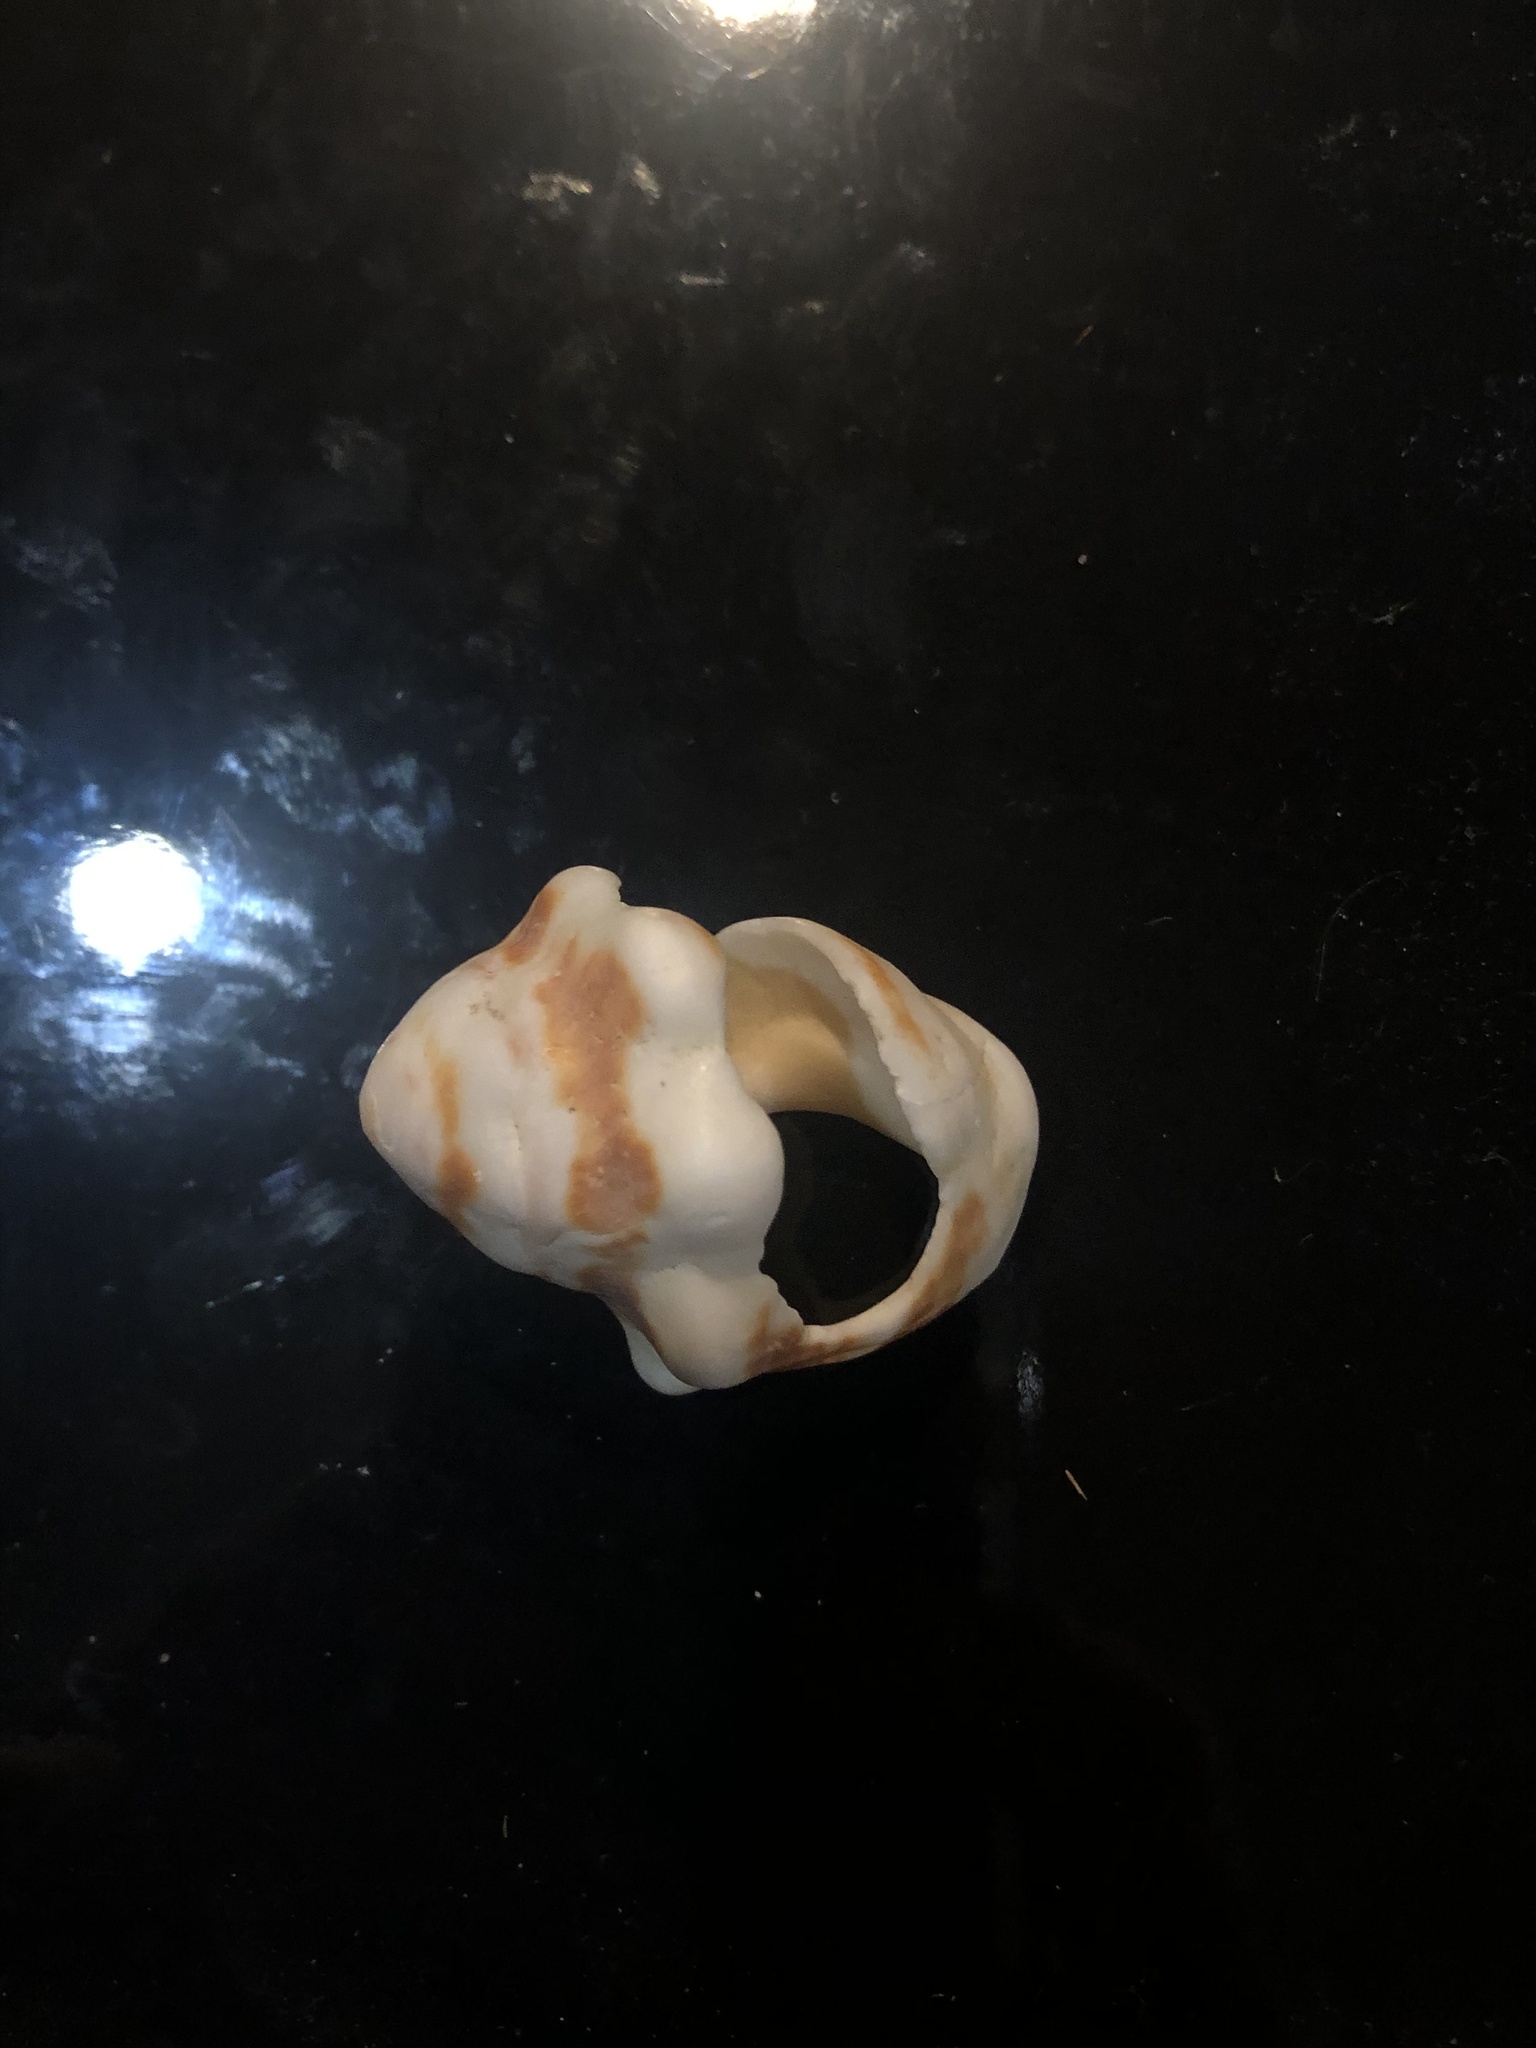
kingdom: Animalia
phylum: Mollusca
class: Gastropoda
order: Neogastropoda
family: Muricidae
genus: Vasula
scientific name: Vasula deltoidea
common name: Deltoid rocksnail
